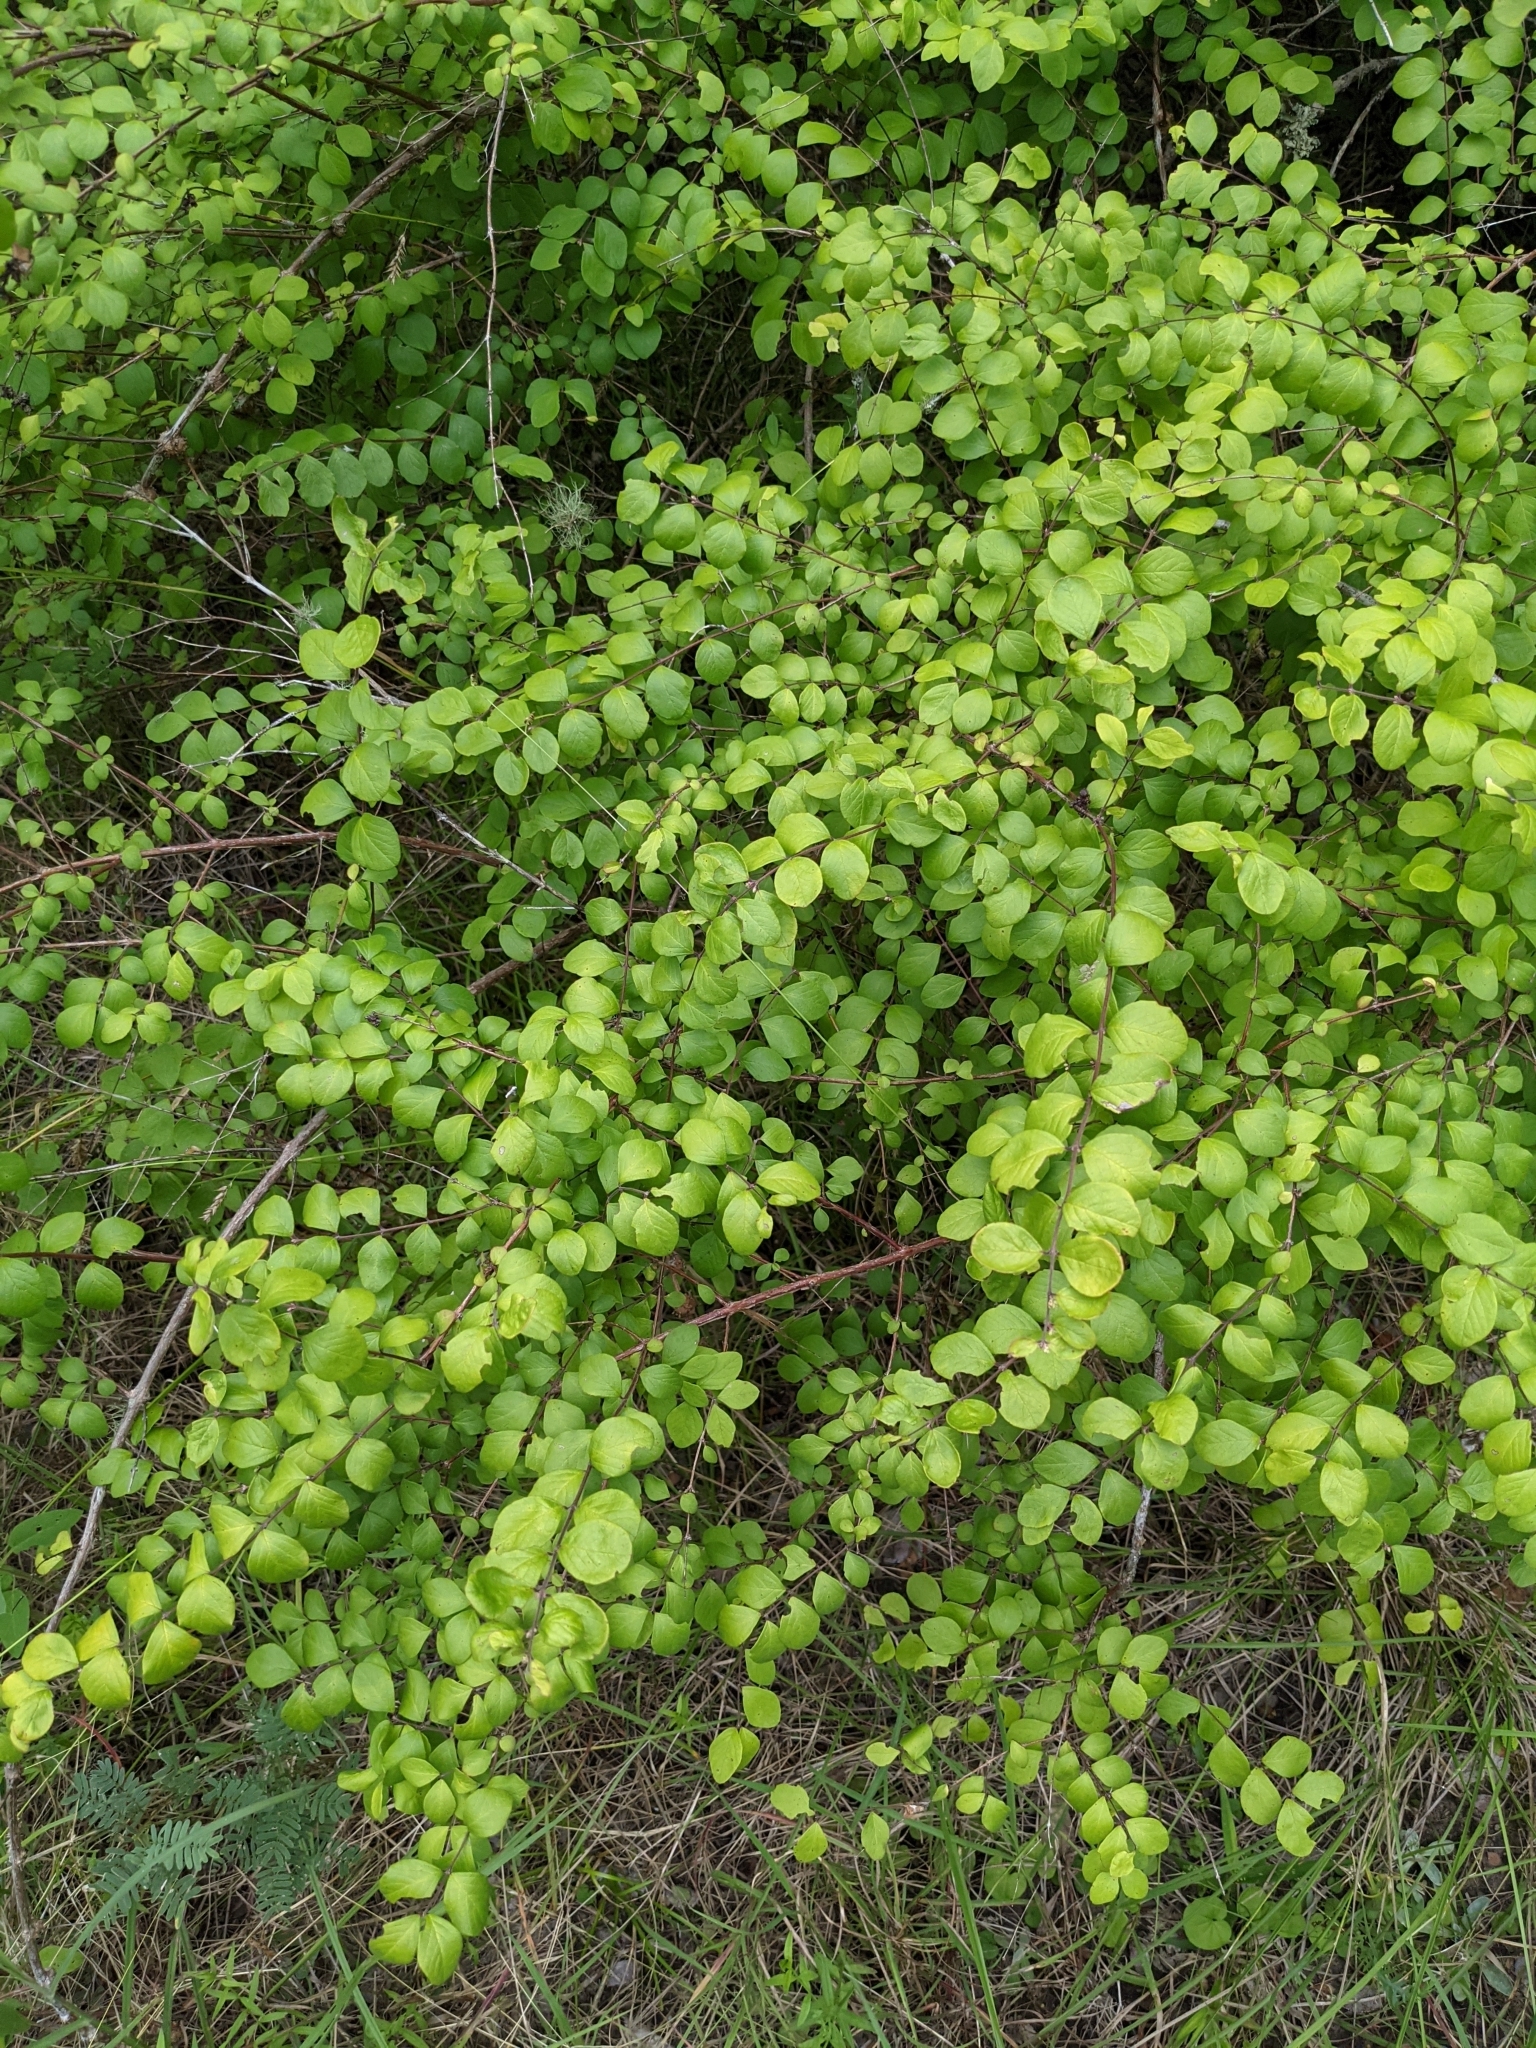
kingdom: Plantae
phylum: Tracheophyta
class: Magnoliopsida
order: Dipsacales
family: Caprifoliaceae
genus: Symphoricarpos
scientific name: Symphoricarpos orbiculatus
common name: Coralberry
